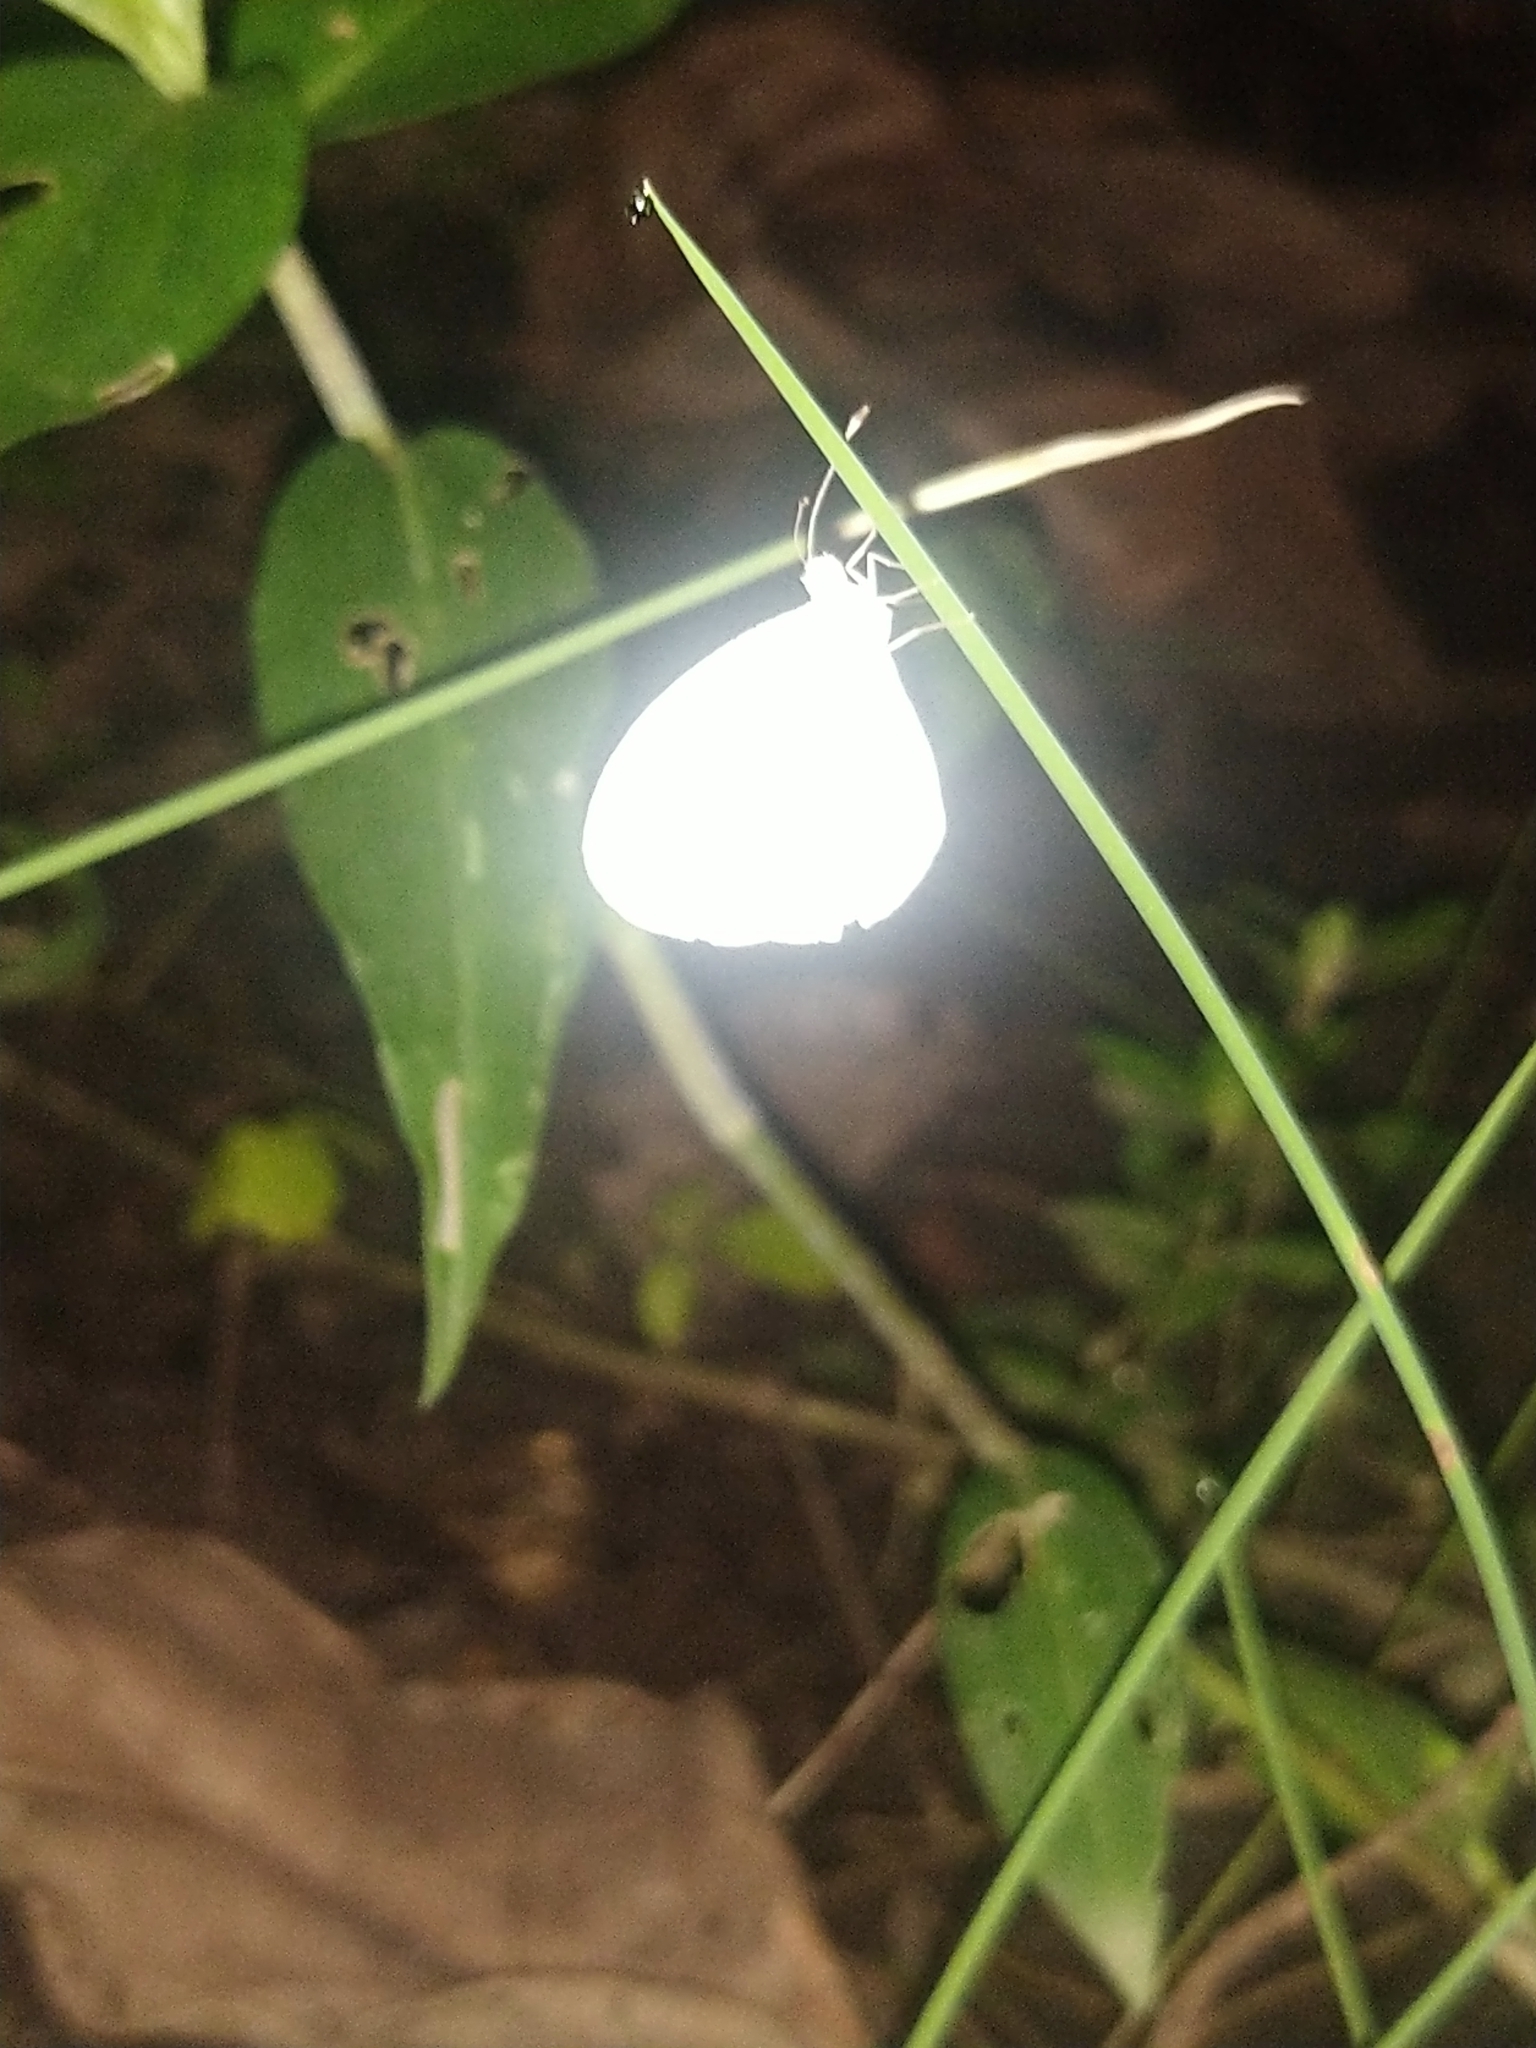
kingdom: Animalia
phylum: Arthropoda
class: Insecta
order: Lepidoptera
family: Pieridae
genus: Leptosia
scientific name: Leptosia nina
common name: Psyche
